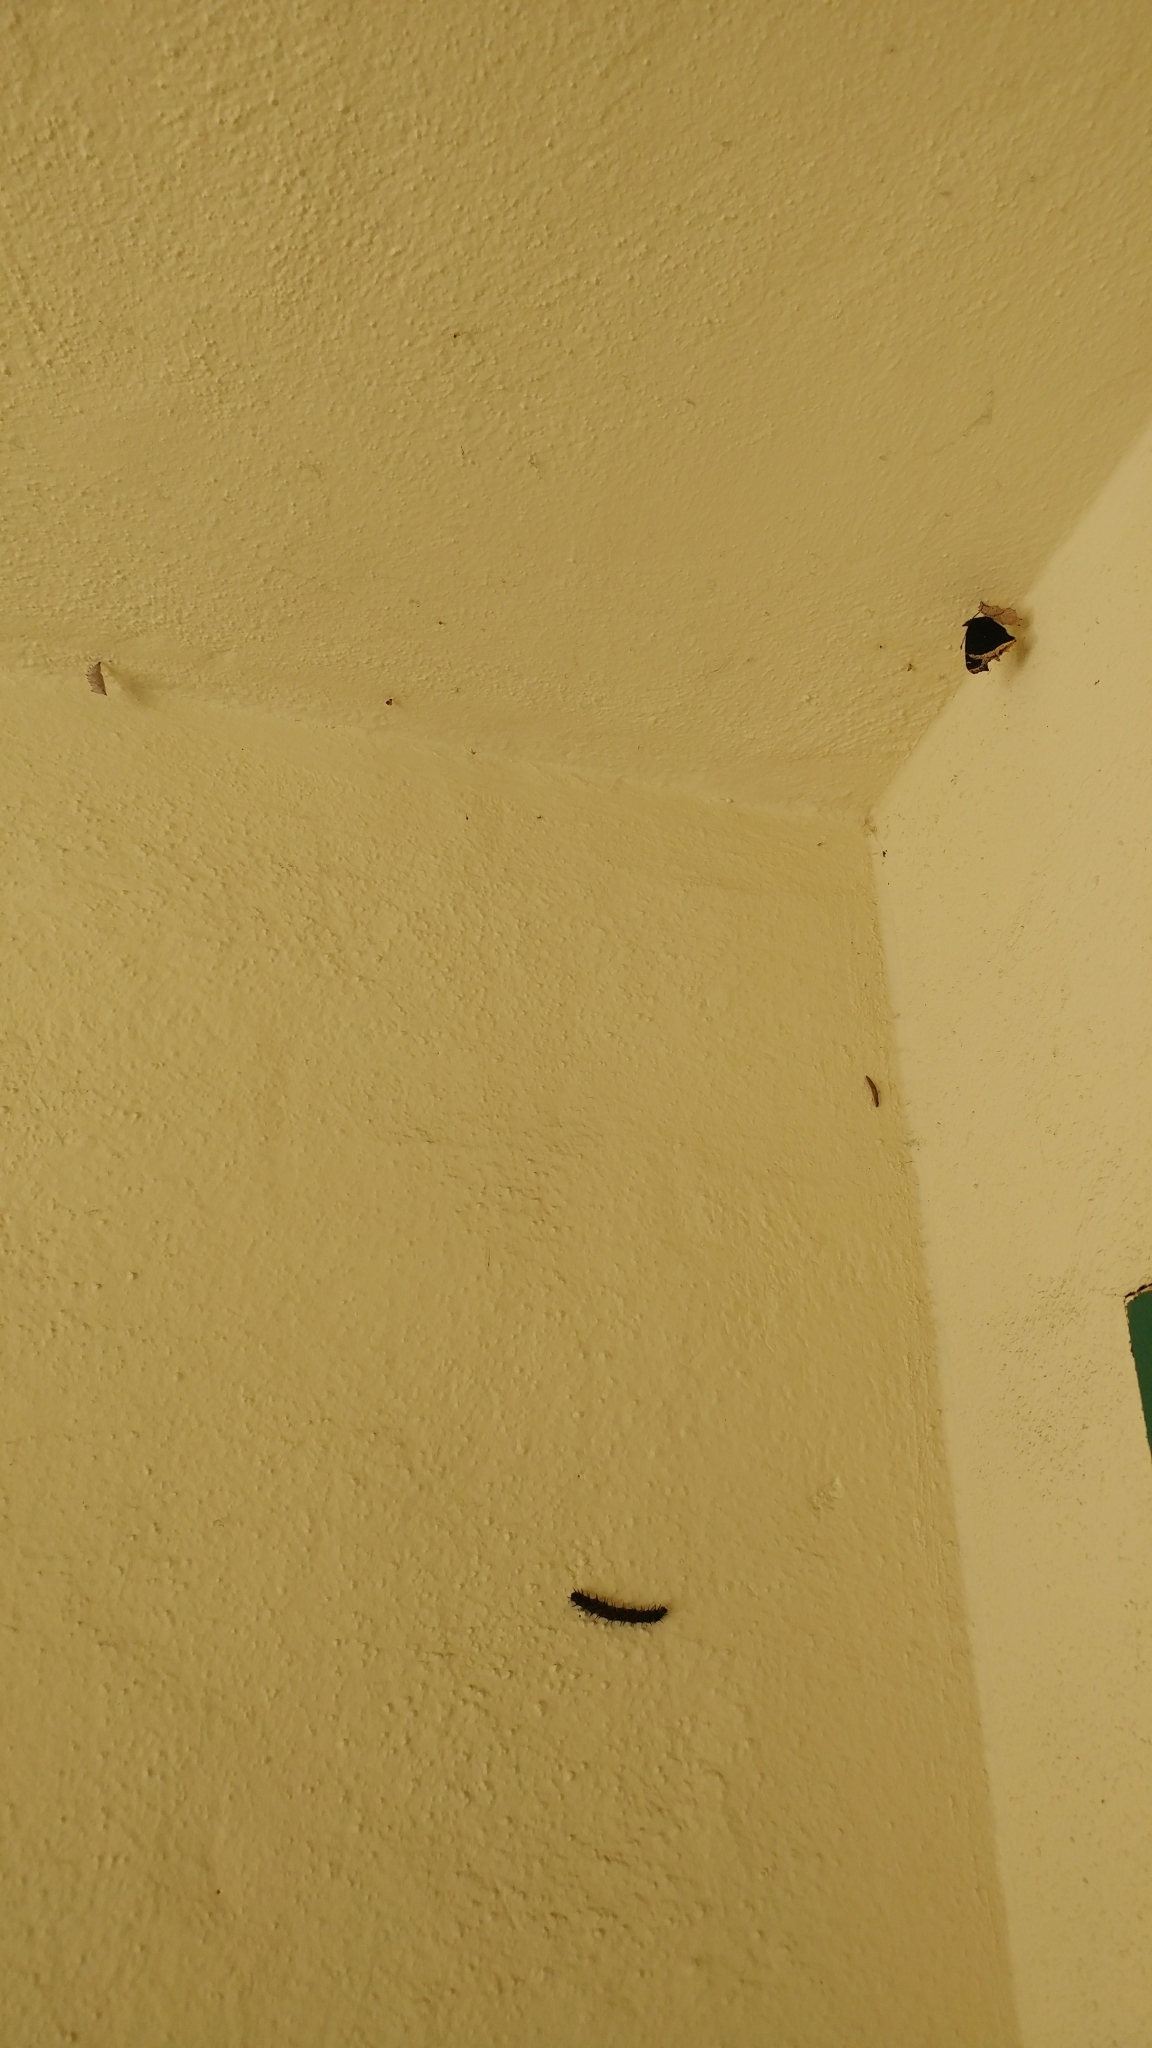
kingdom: Animalia
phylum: Arthropoda
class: Insecta
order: Lepidoptera
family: Nymphalidae
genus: Nymphalis
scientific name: Nymphalis antiopa
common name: Camberwell beauty
